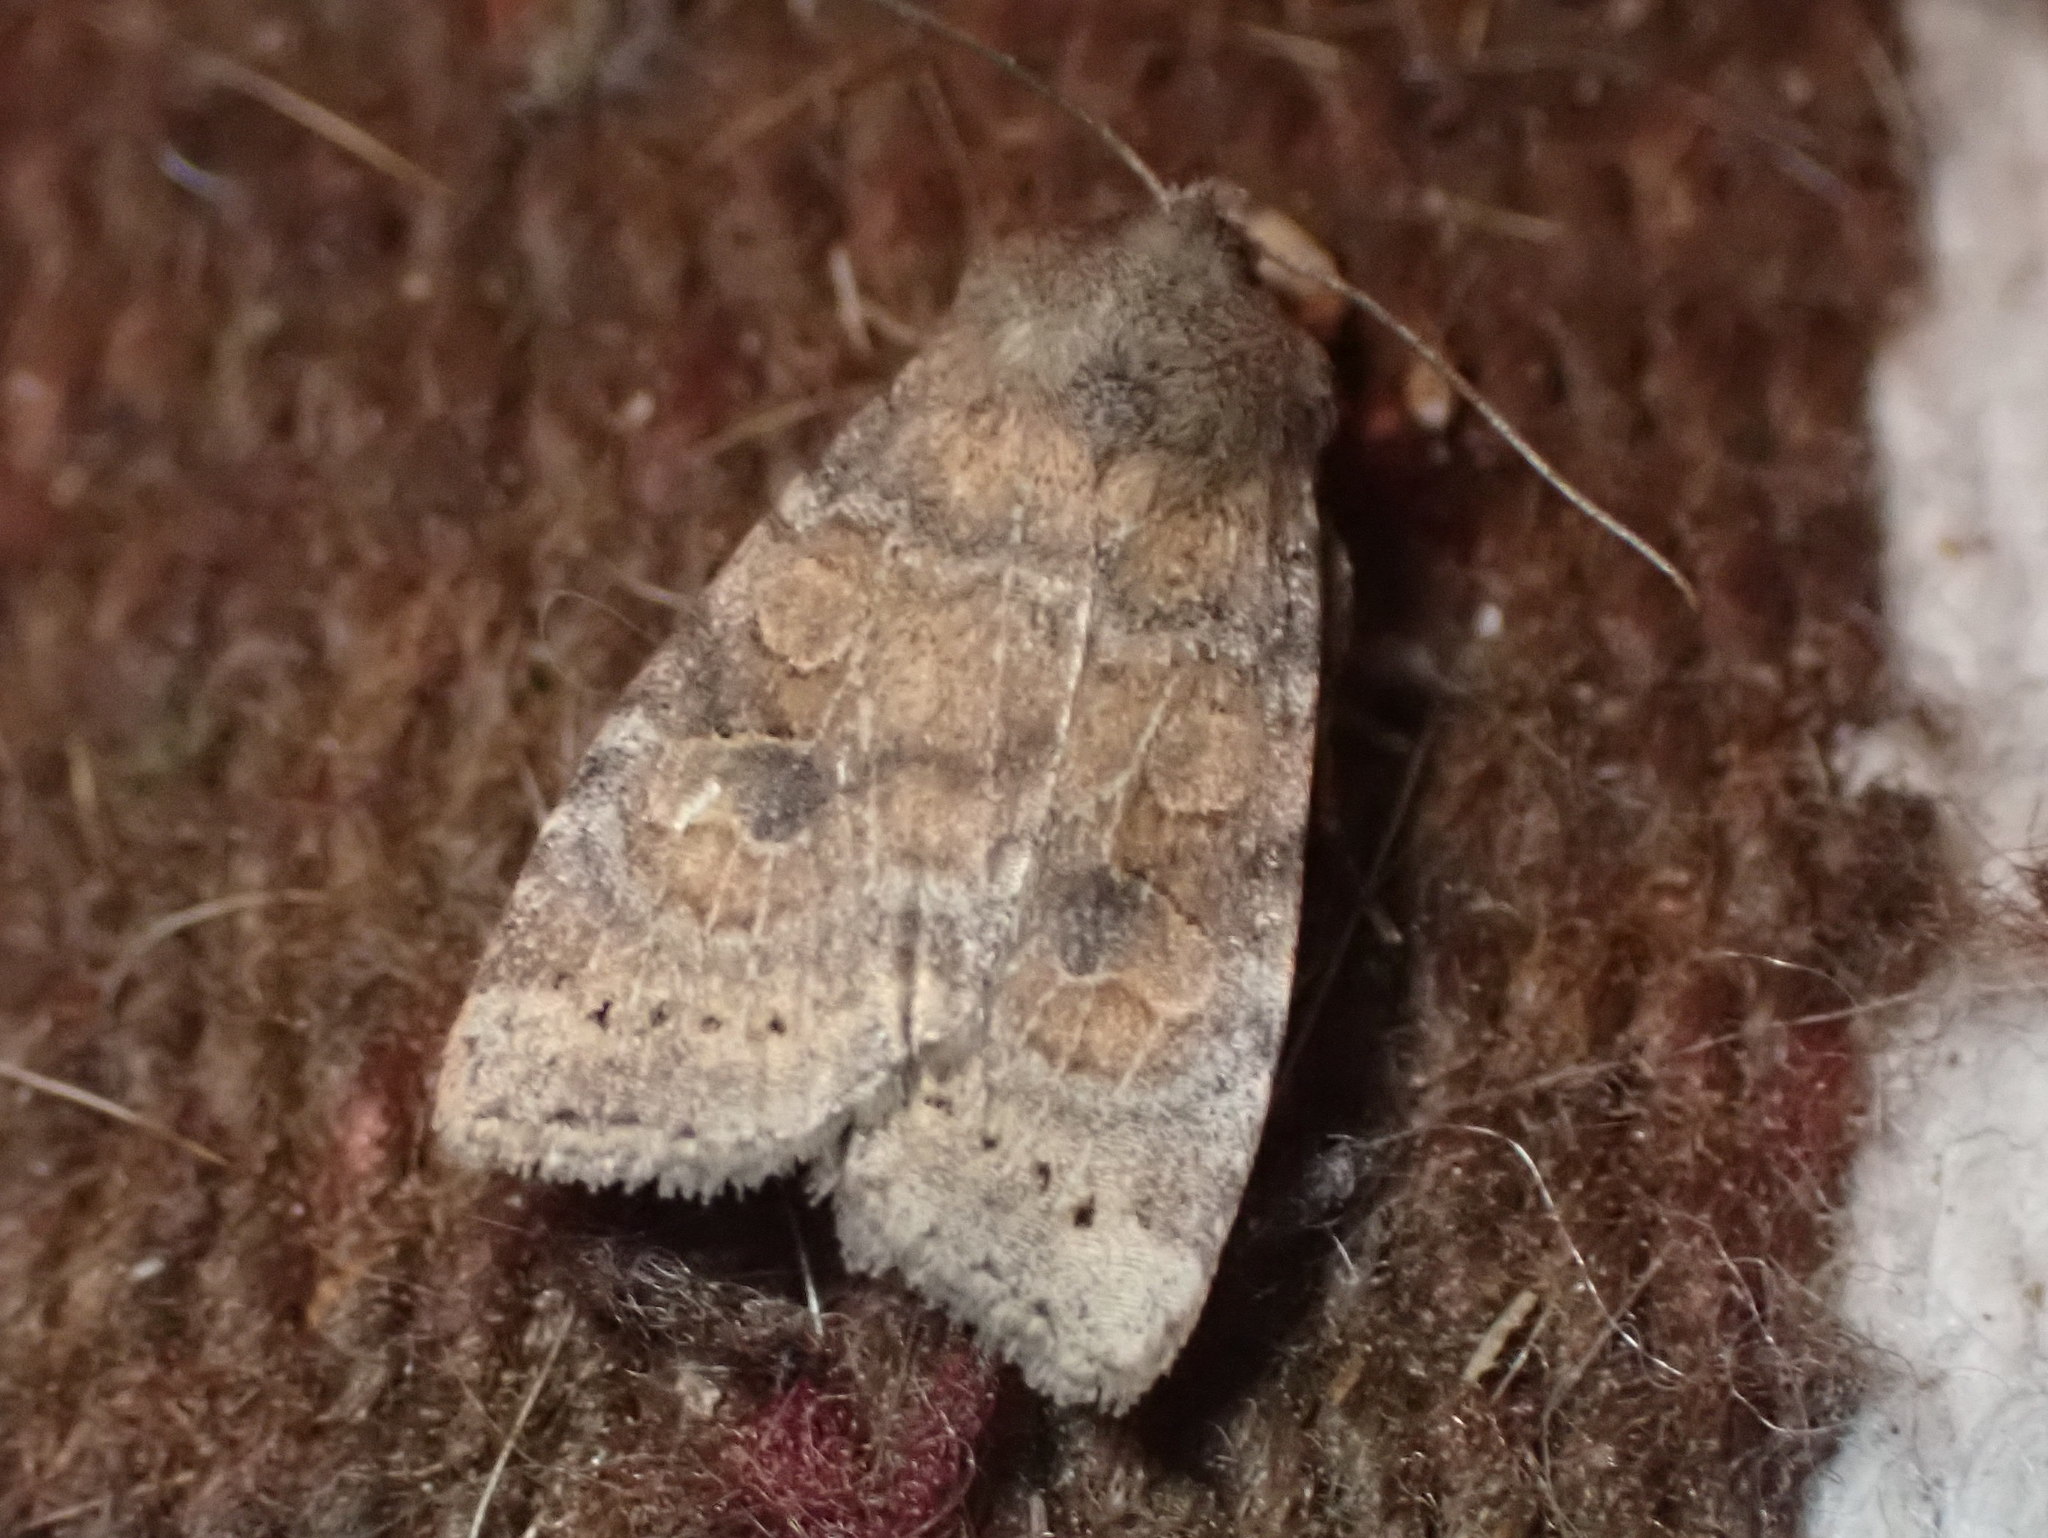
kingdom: Animalia
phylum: Arthropoda
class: Insecta
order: Lepidoptera
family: Noctuidae
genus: Xestia
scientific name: Xestia smithii
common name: Smith's dart
